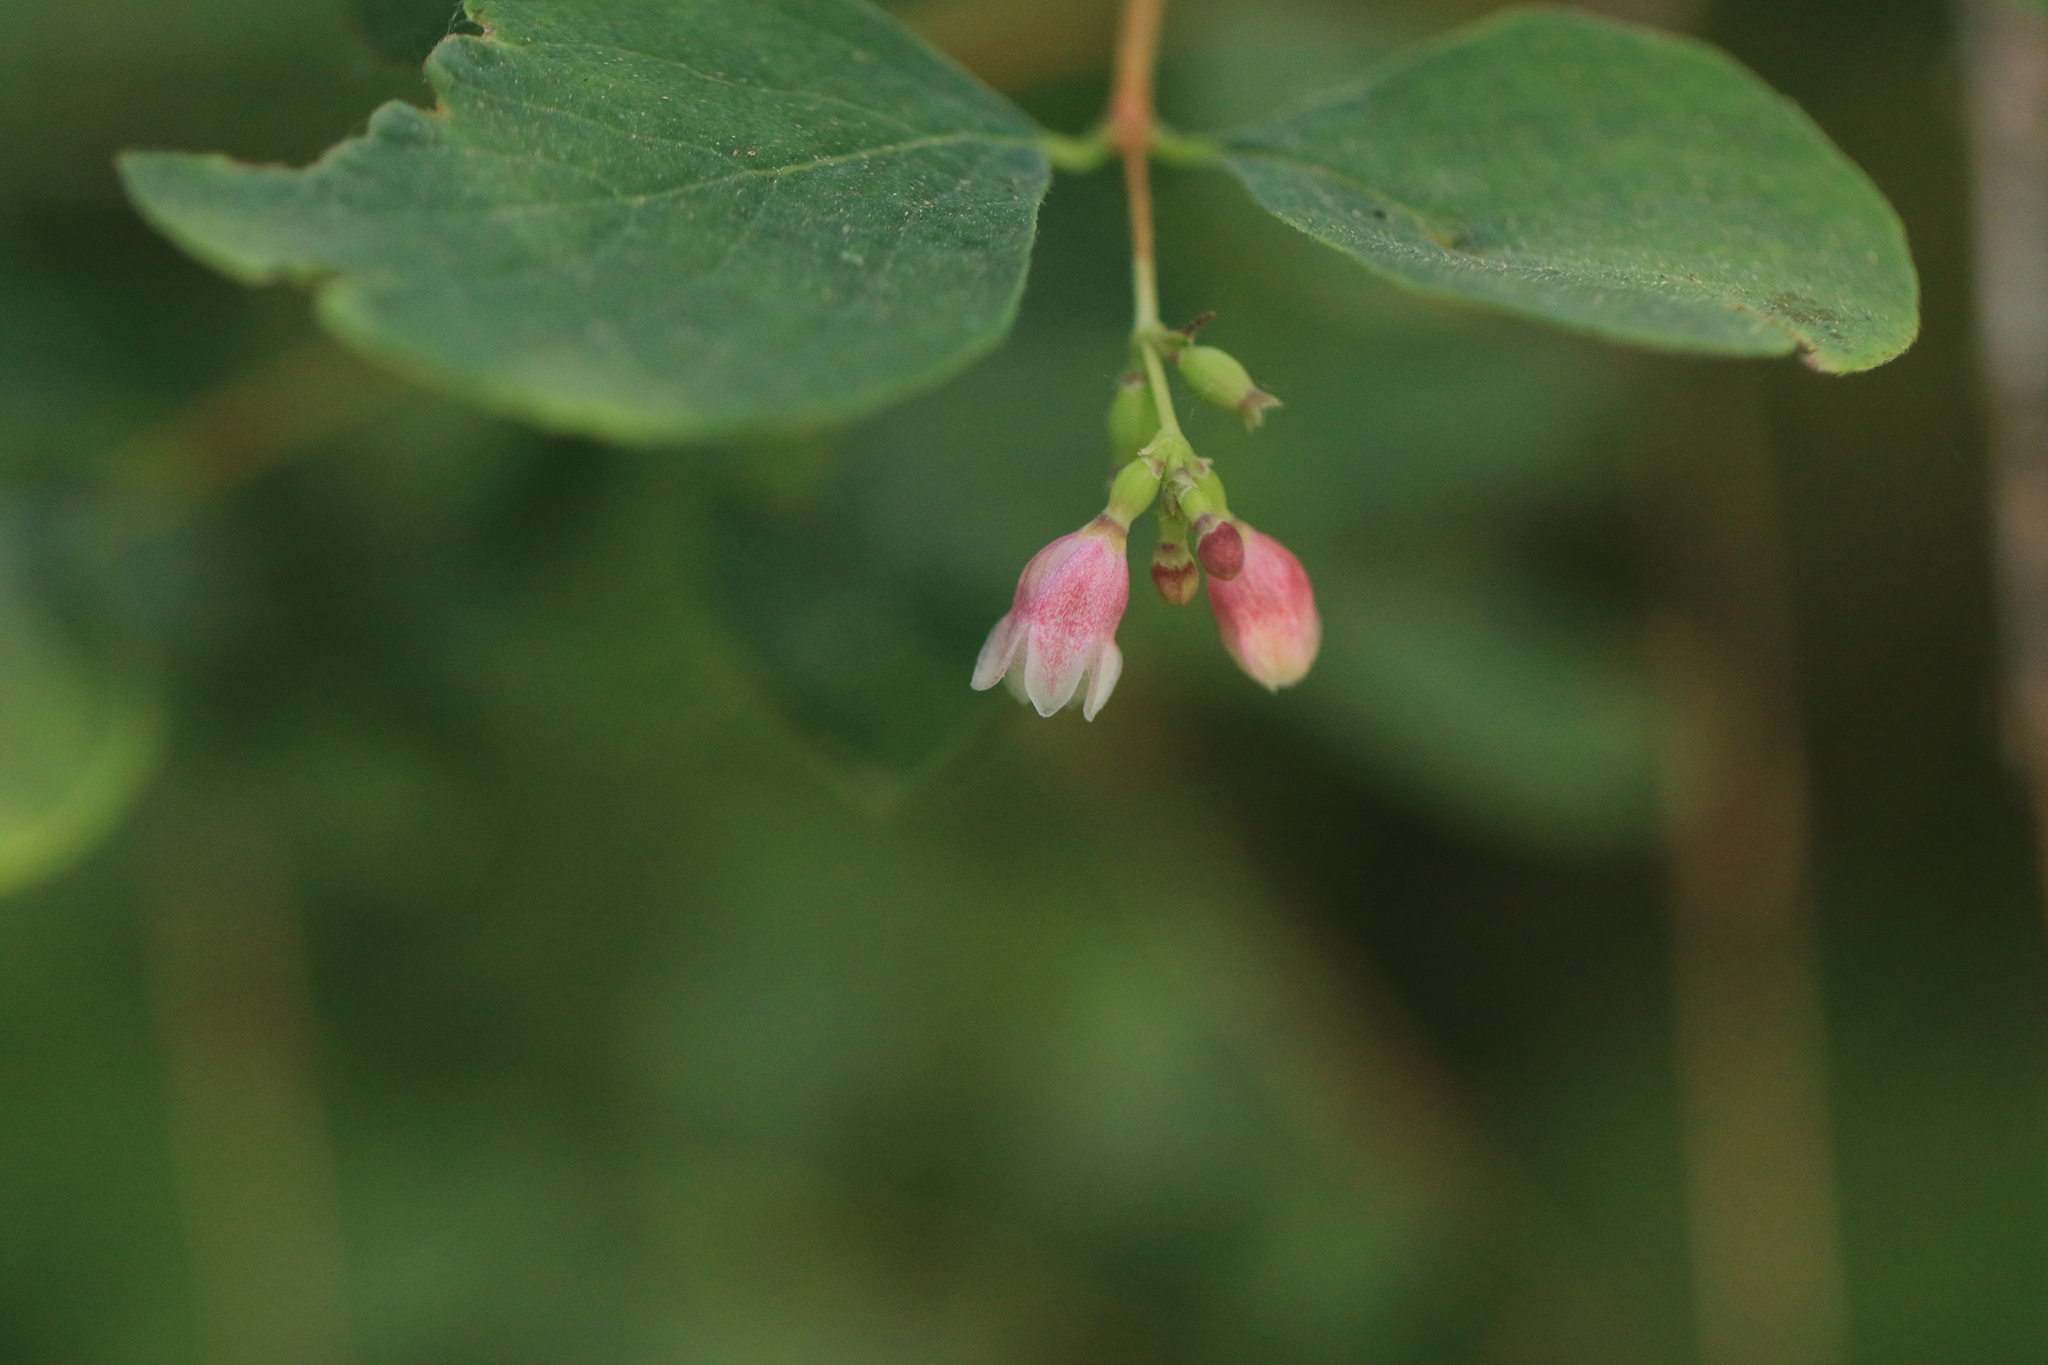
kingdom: Plantae
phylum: Tracheophyta
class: Magnoliopsida
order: Dipsacales
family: Caprifoliaceae
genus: Symphoricarpos
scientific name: Symphoricarpos albus
